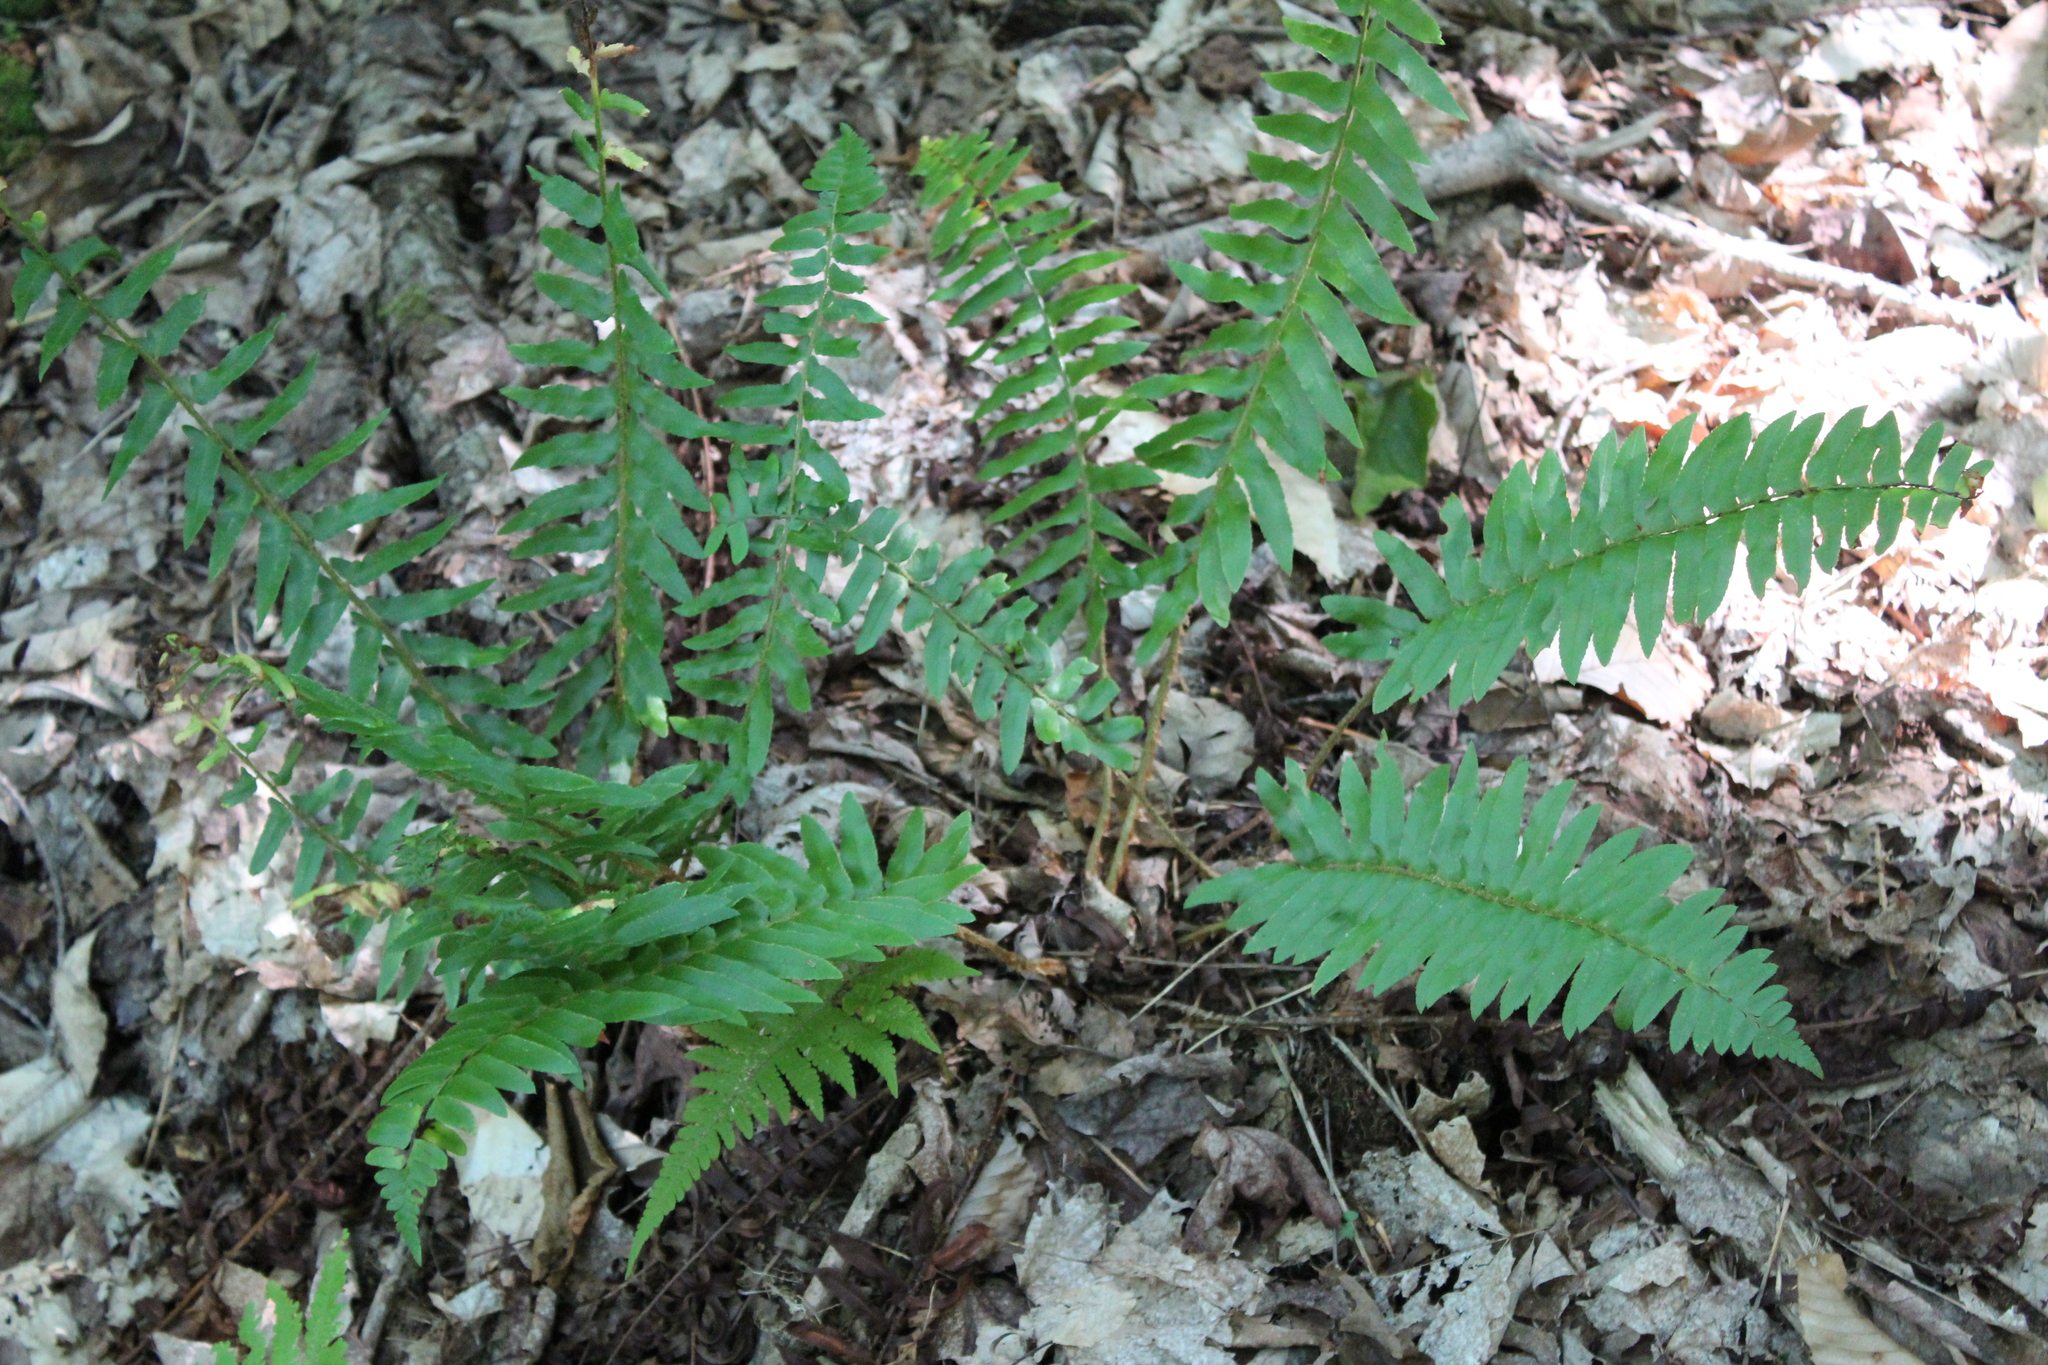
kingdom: Plantae
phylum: Tracheophyta
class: Polypodiopsida
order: Polypodiales
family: Dryopteridaceae
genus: Polystichum
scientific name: Polystichum acrostichoides
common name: Christmas fern
